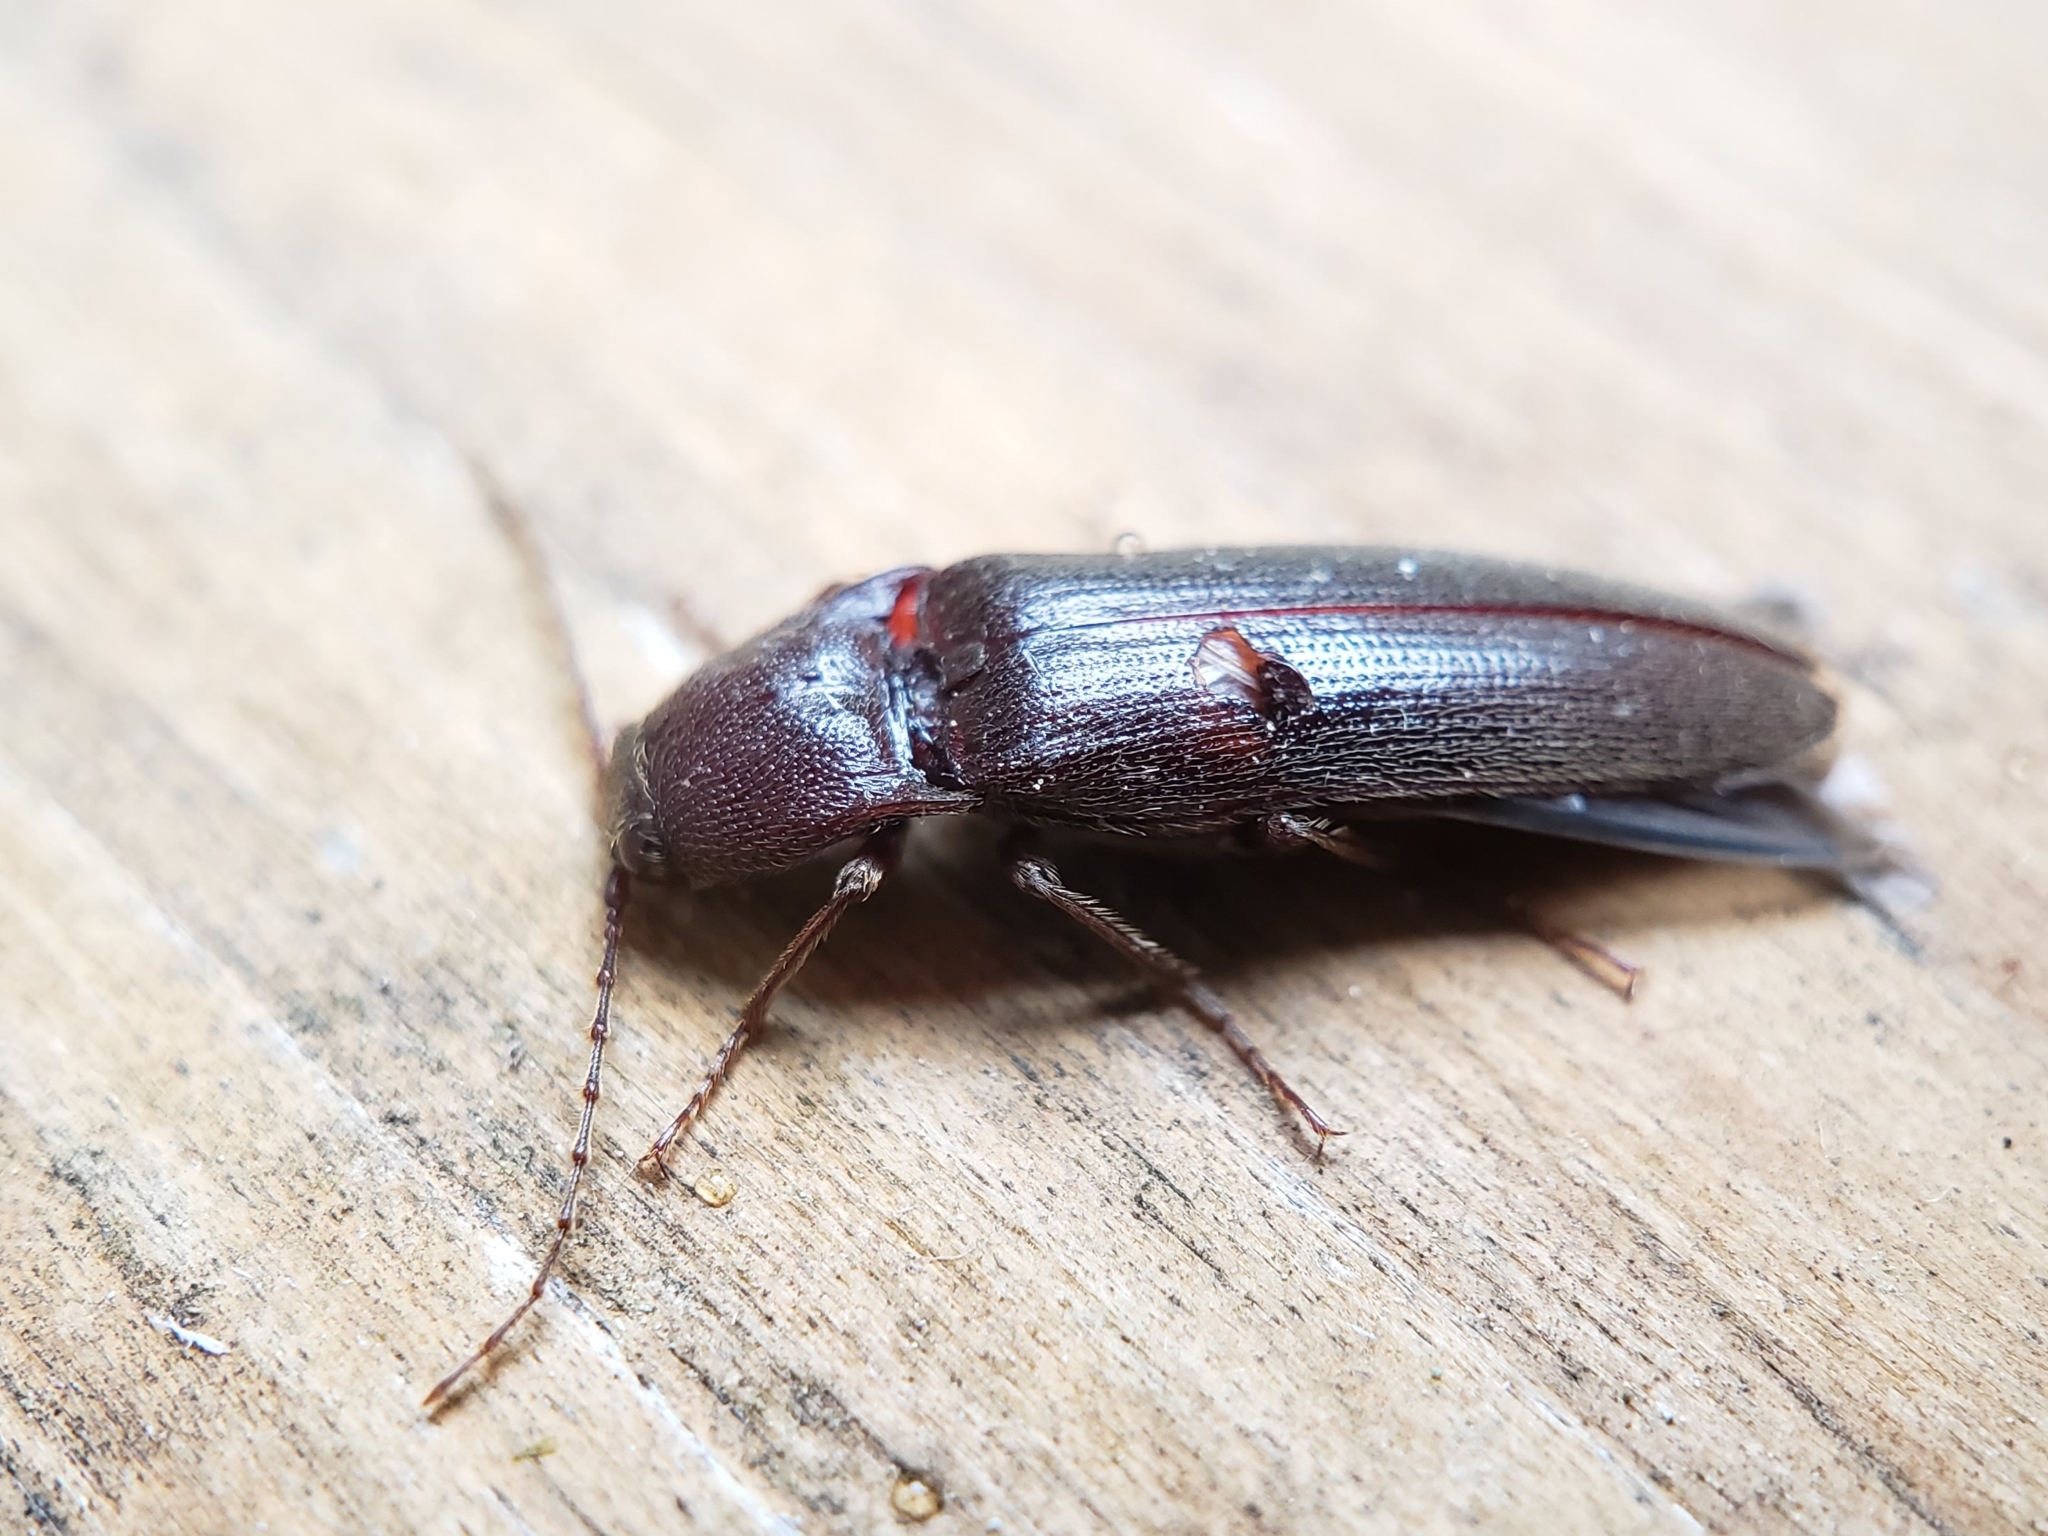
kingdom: Animalia
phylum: Arthropoda
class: Insecta
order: Coleoptera
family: Elateridae
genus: Melanotus
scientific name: Melanotus castanipes
